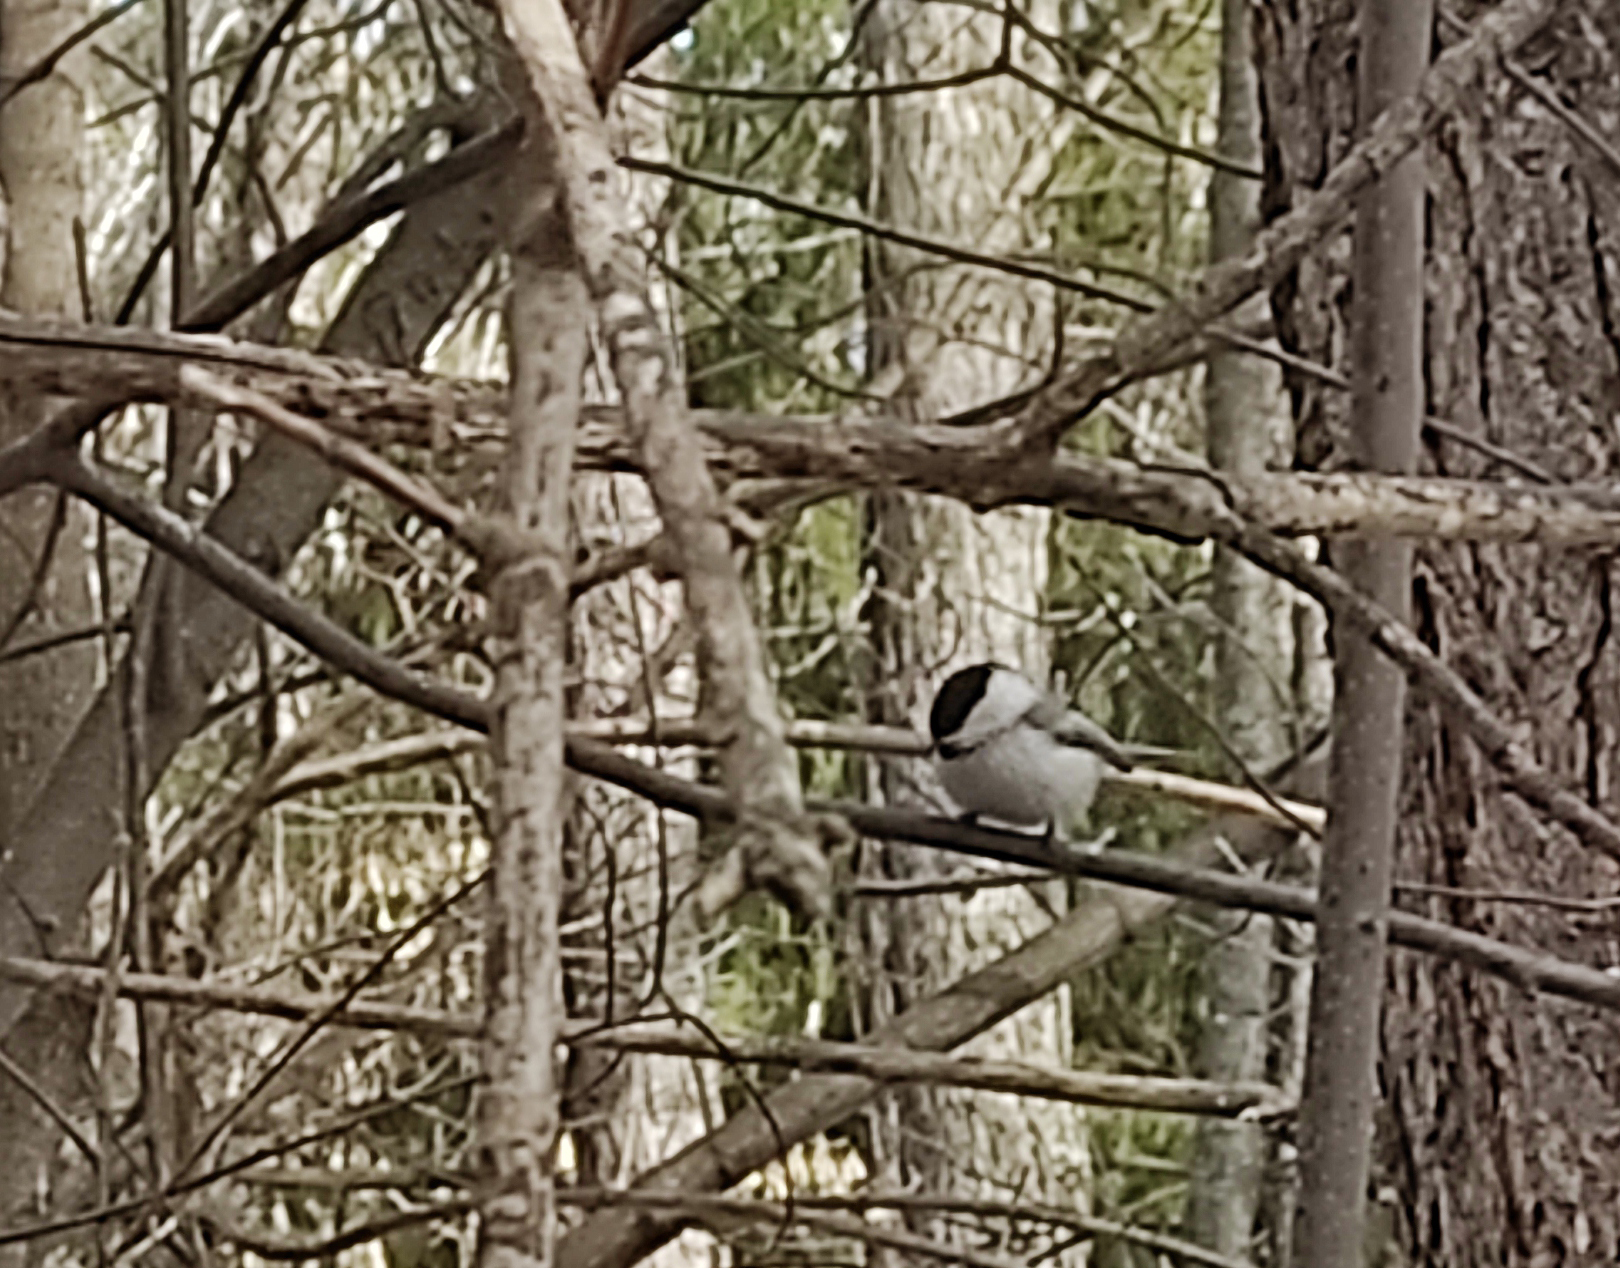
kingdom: Animalia
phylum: Chordata
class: Aves
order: Passeriformes
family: Paridae
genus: Poecile
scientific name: Poecile montanus
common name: Willow tit
